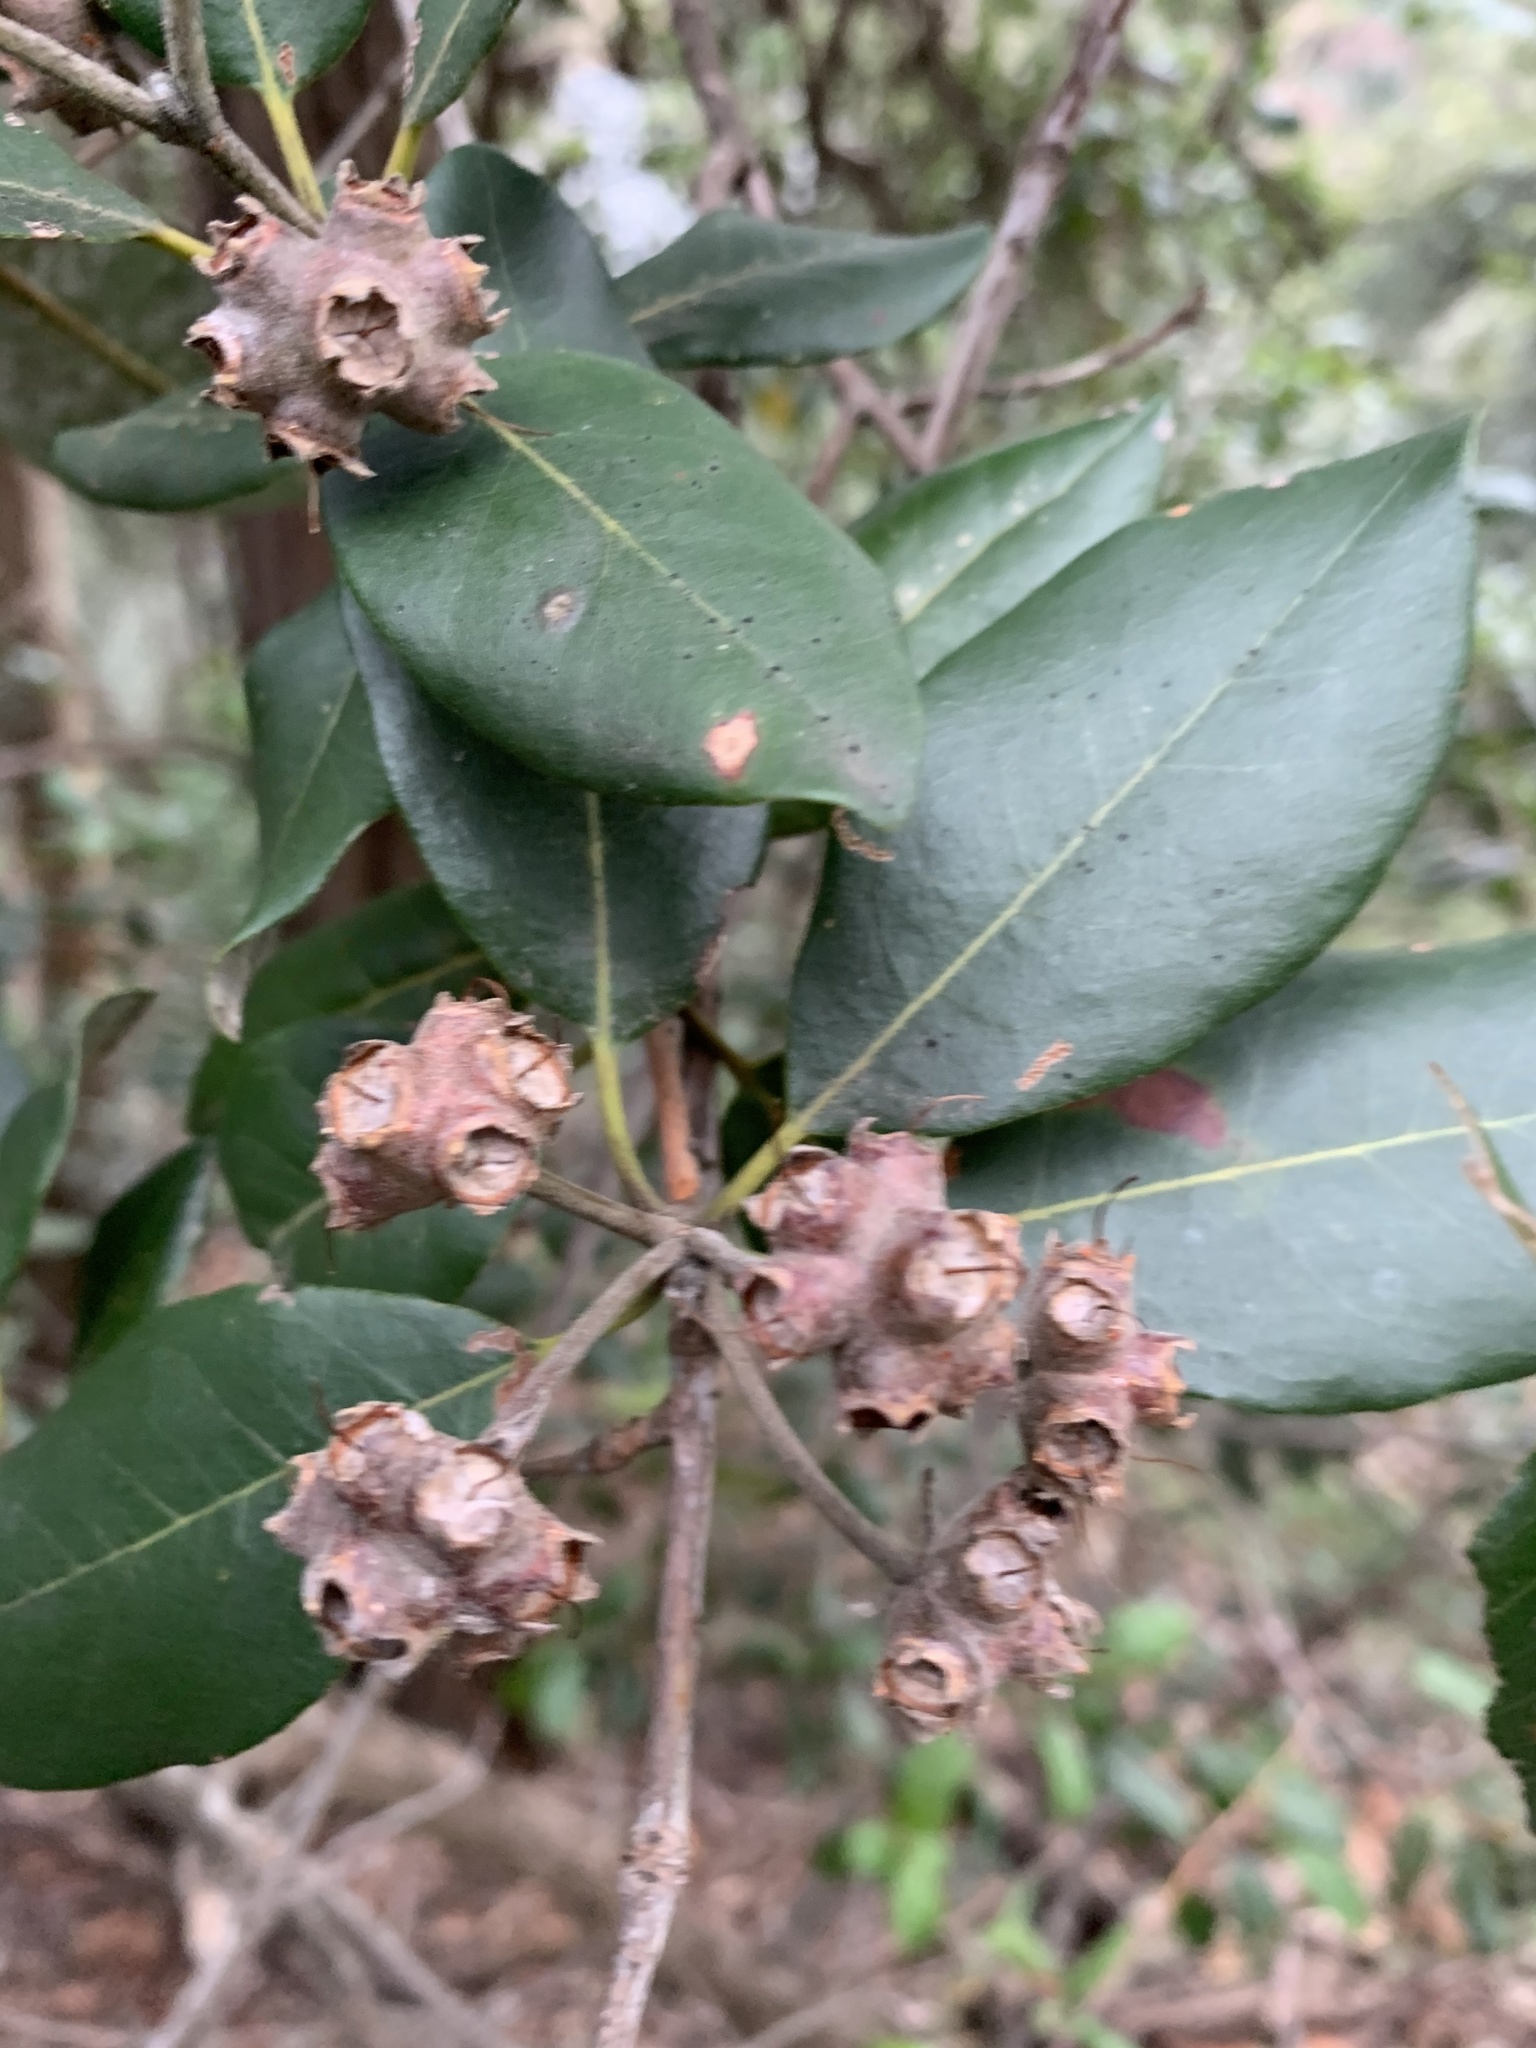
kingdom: Plantae
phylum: Tracheophyta
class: Magnoliopsida
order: Myrtales
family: Myrtaceae
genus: Syncarpia
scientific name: Syncarpia glomulifera
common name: Turpentine tree
